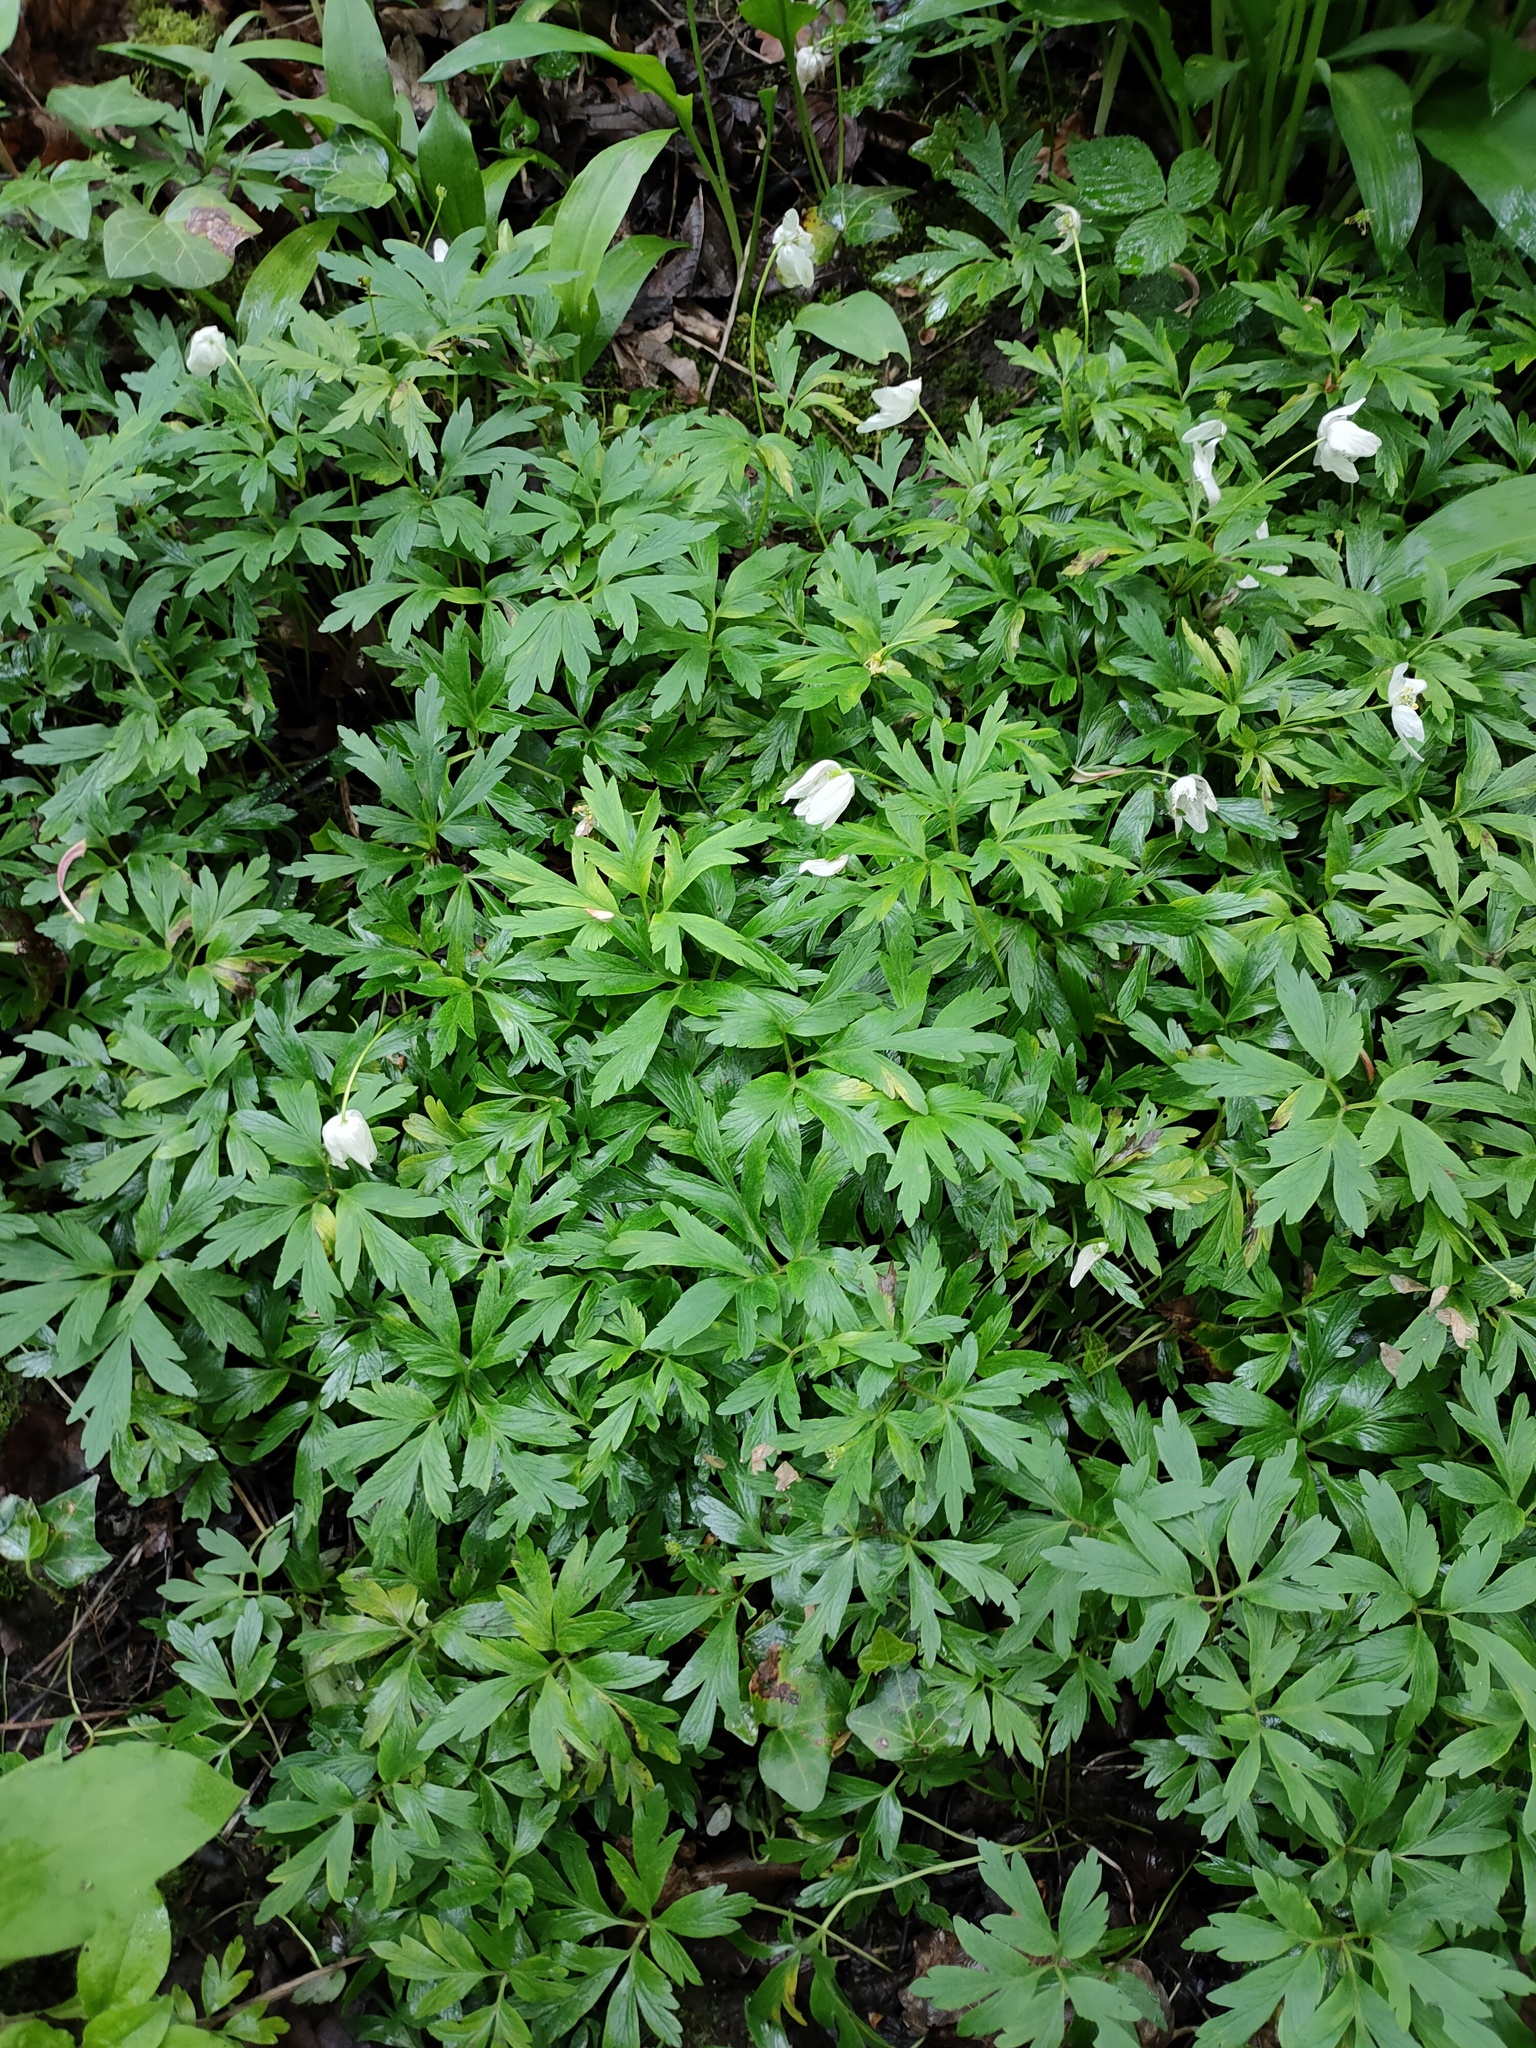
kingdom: Plantae
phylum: Tracheophyta
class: Magnoliopsida
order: Ranunculales
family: Ranunculaceae
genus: Anemone
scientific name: Anemone nemorosa
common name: Wood anemone
